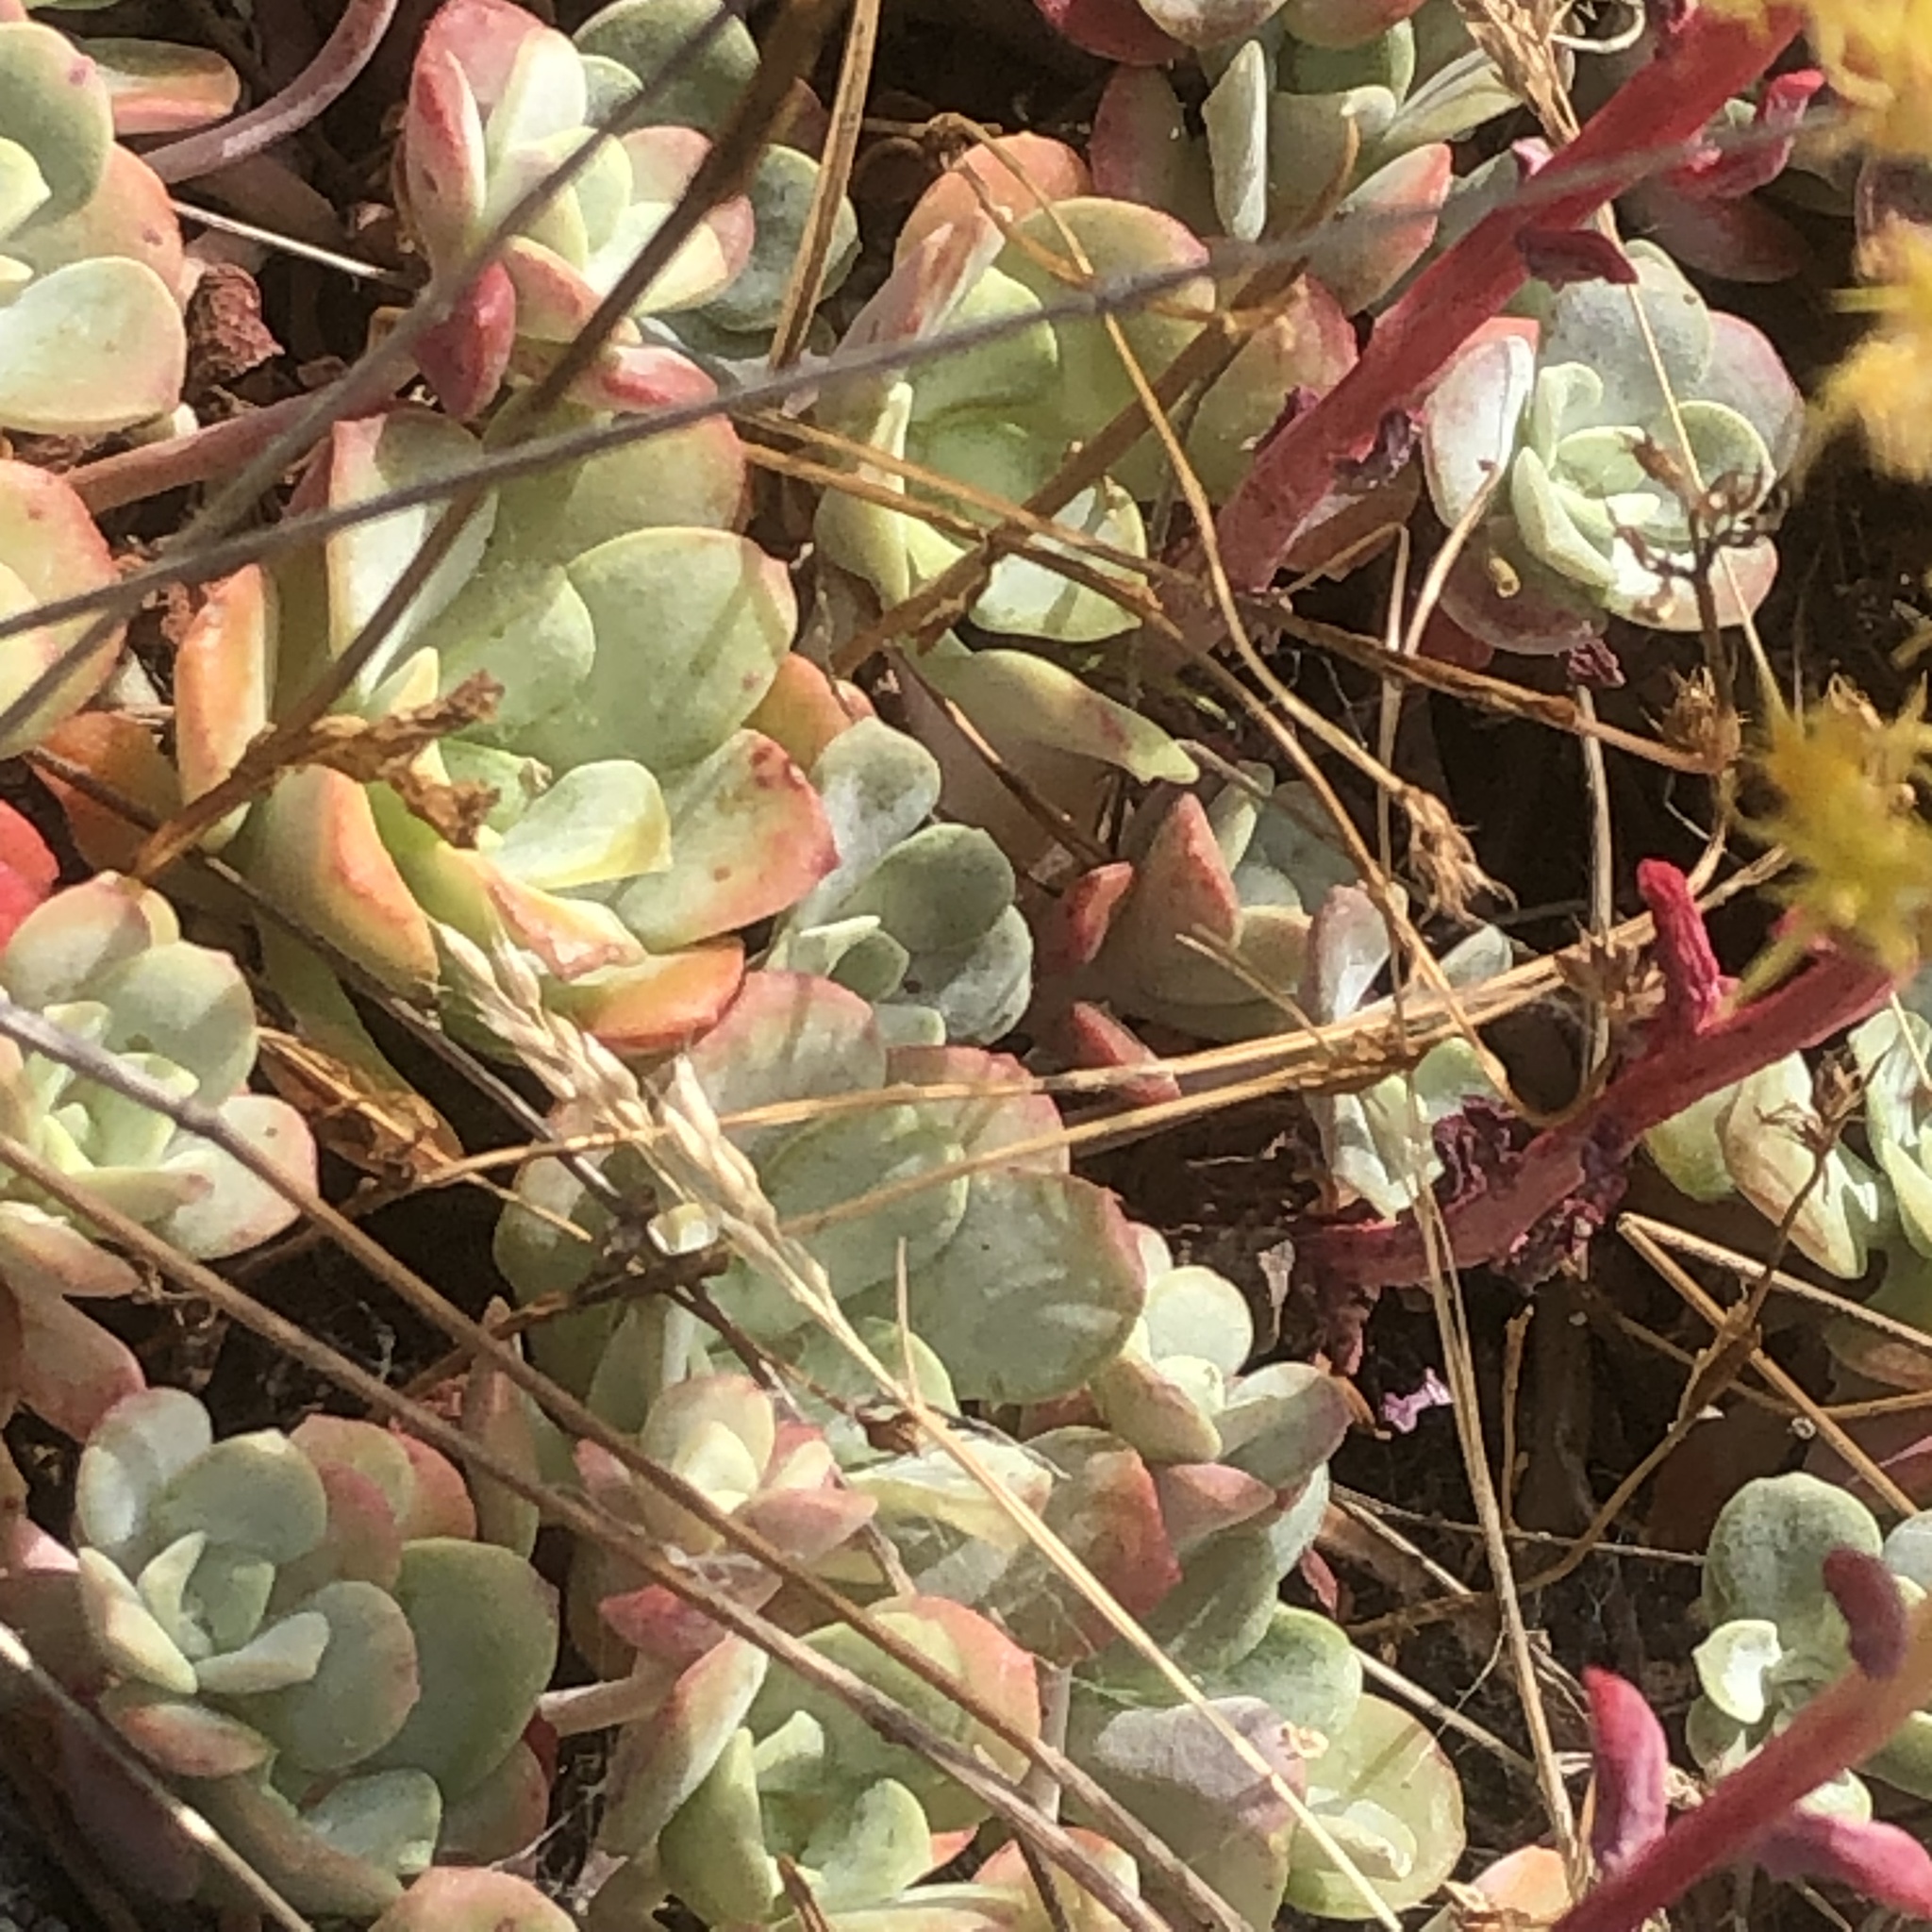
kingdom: Plantae
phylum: Tracheophyta
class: Magnoliopsida
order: Saxifragales
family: Crassulaceae
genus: Sedum
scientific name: Sedum spathulifolium
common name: Colorado stonecrop
